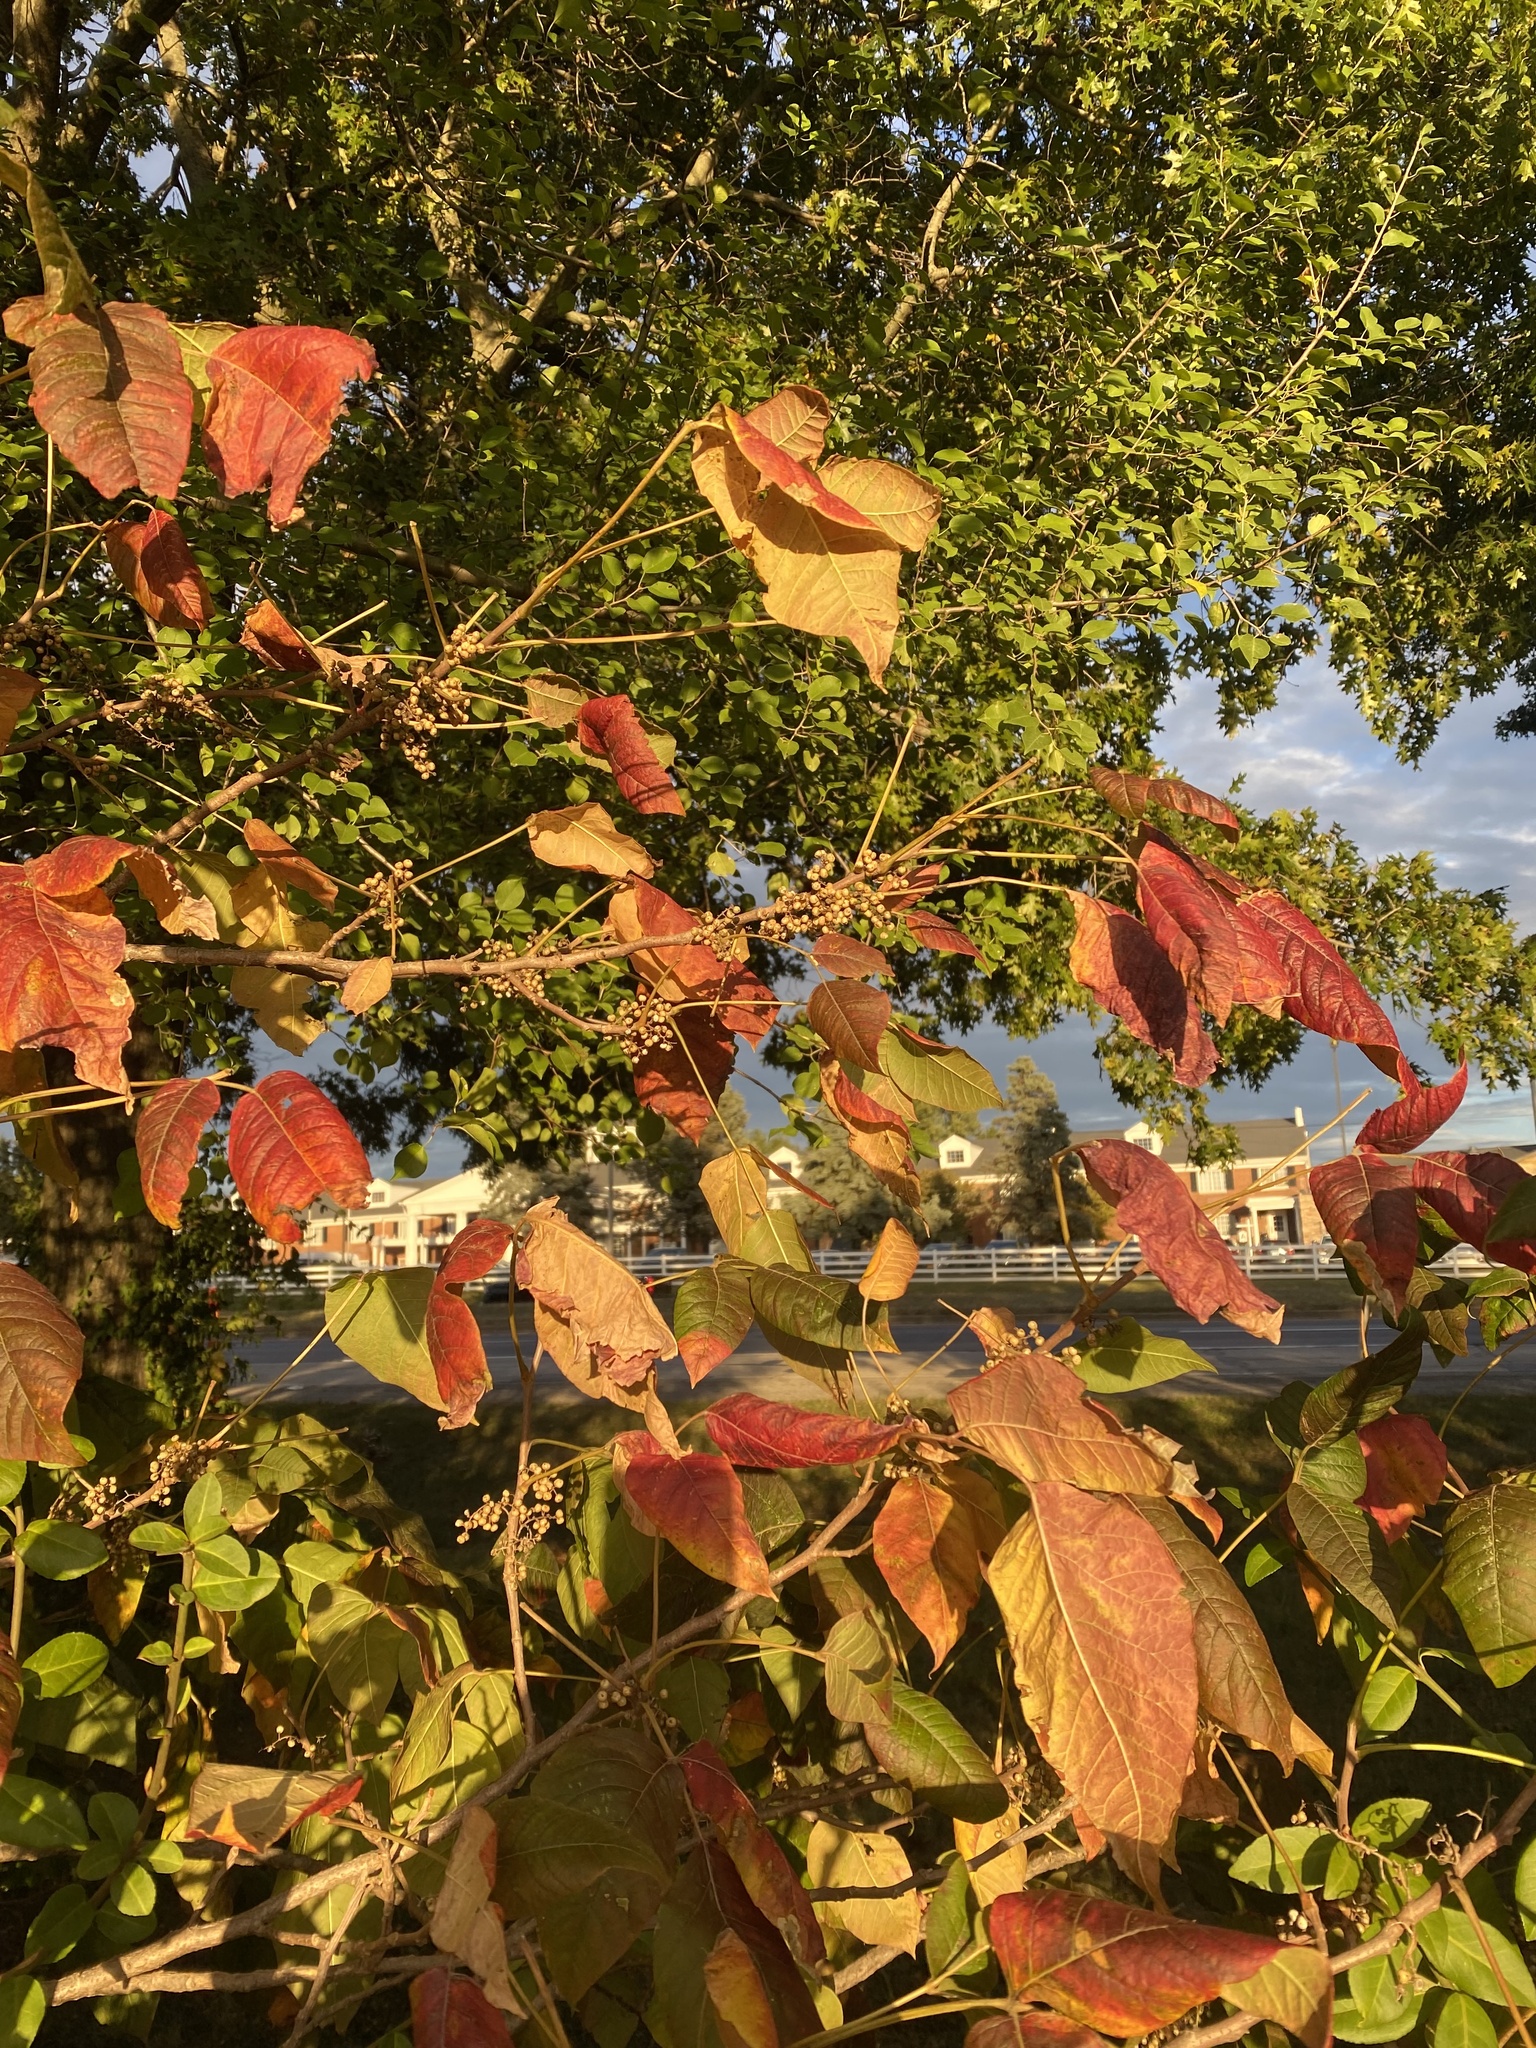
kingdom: Plantae
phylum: Tracheophyta
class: Magnoliopsida
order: Sapindales
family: Anacardiaceae
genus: Toxicodendron
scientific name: Toxicodendron radicans
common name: Poison ivy
